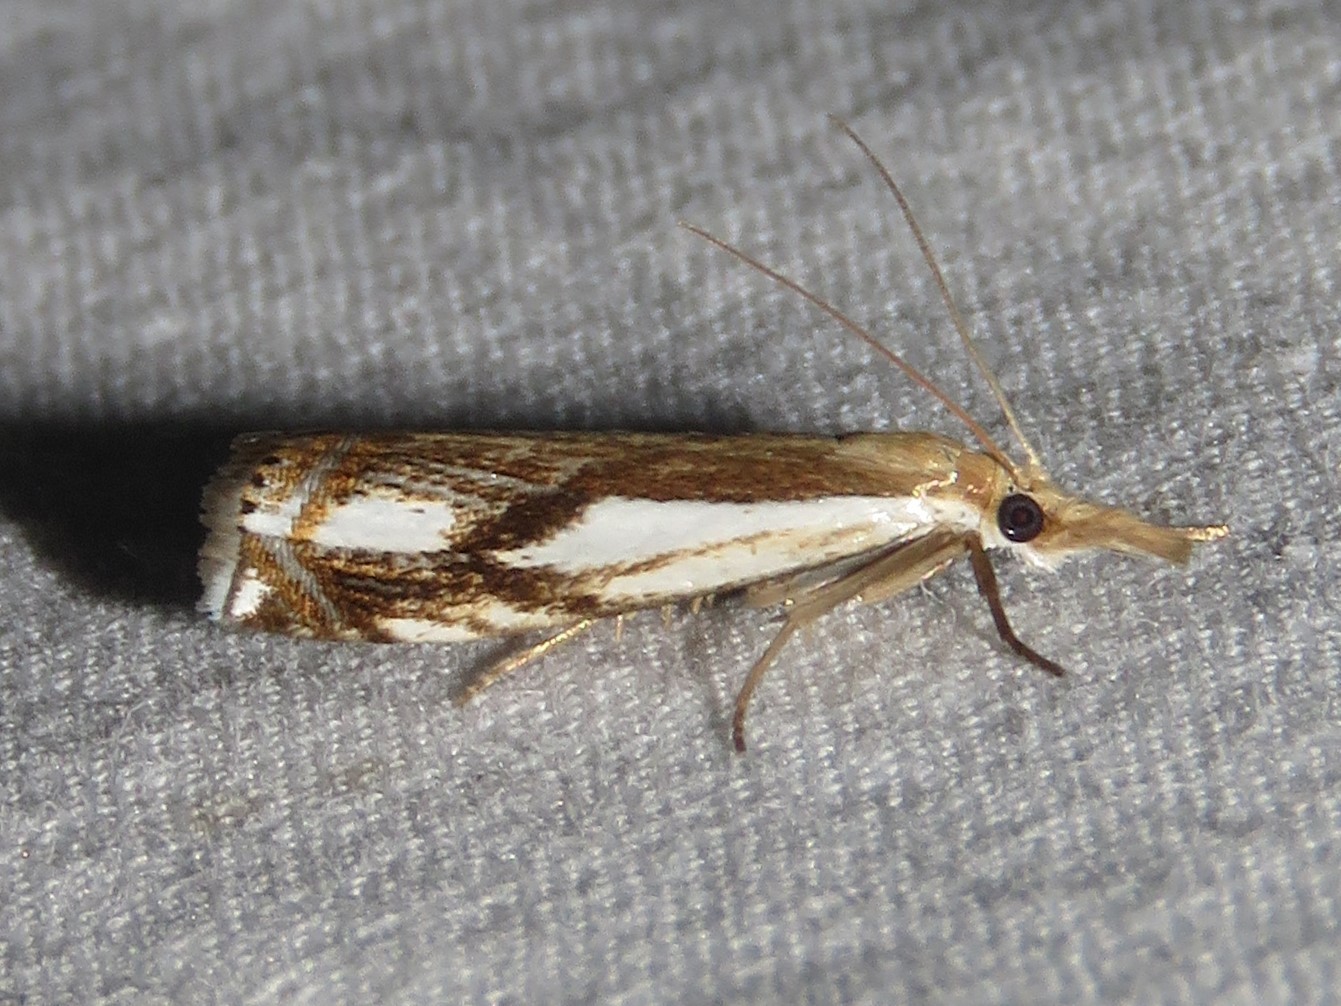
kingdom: Animalia
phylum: Arthropoda
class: Insecta
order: Lepidoptera
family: Crambidae
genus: Crambus
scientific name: Crambus agitatellus
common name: Double-banded grass-veneer
